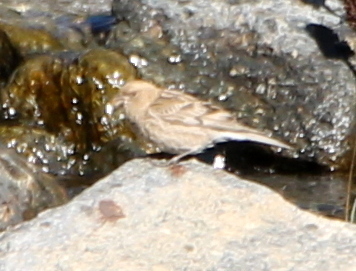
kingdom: Animalia
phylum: Chordata
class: Aves
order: Passeriformes
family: Fringillidae
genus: Leucosticte
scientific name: Leucosticte nemoricola
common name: Plain mountain finch
